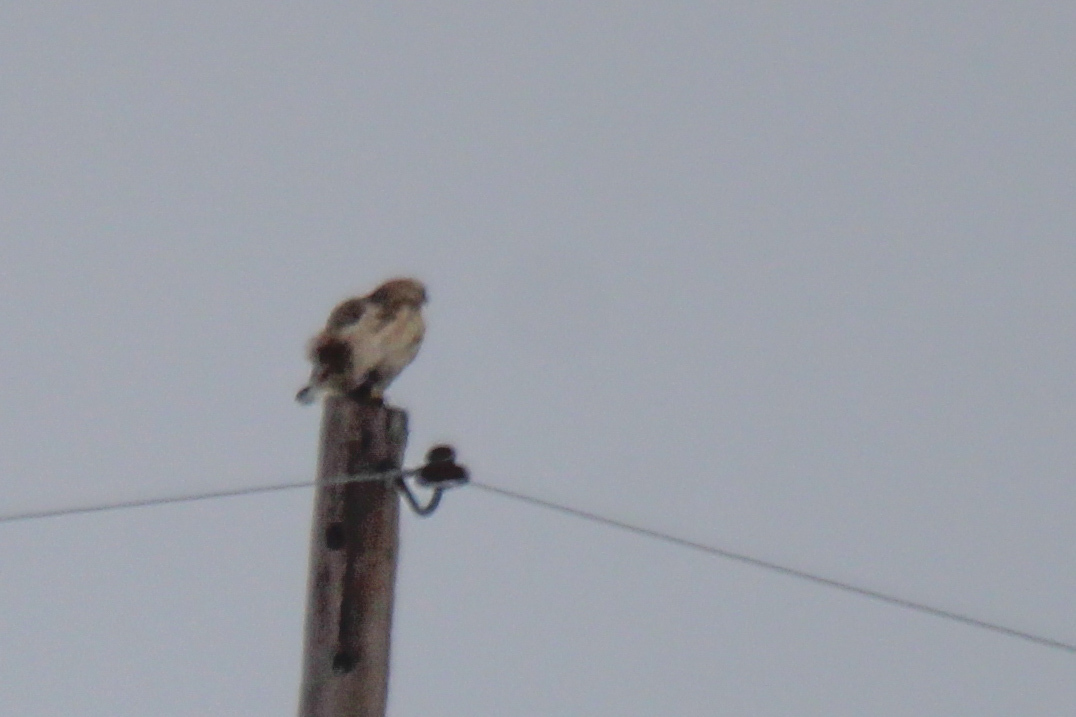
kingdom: Animalia
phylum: Chordata
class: Aves
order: Accipitriformes
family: Accipitridae
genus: Buteo
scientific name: Buteo hemilasius
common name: Upland buzzard
